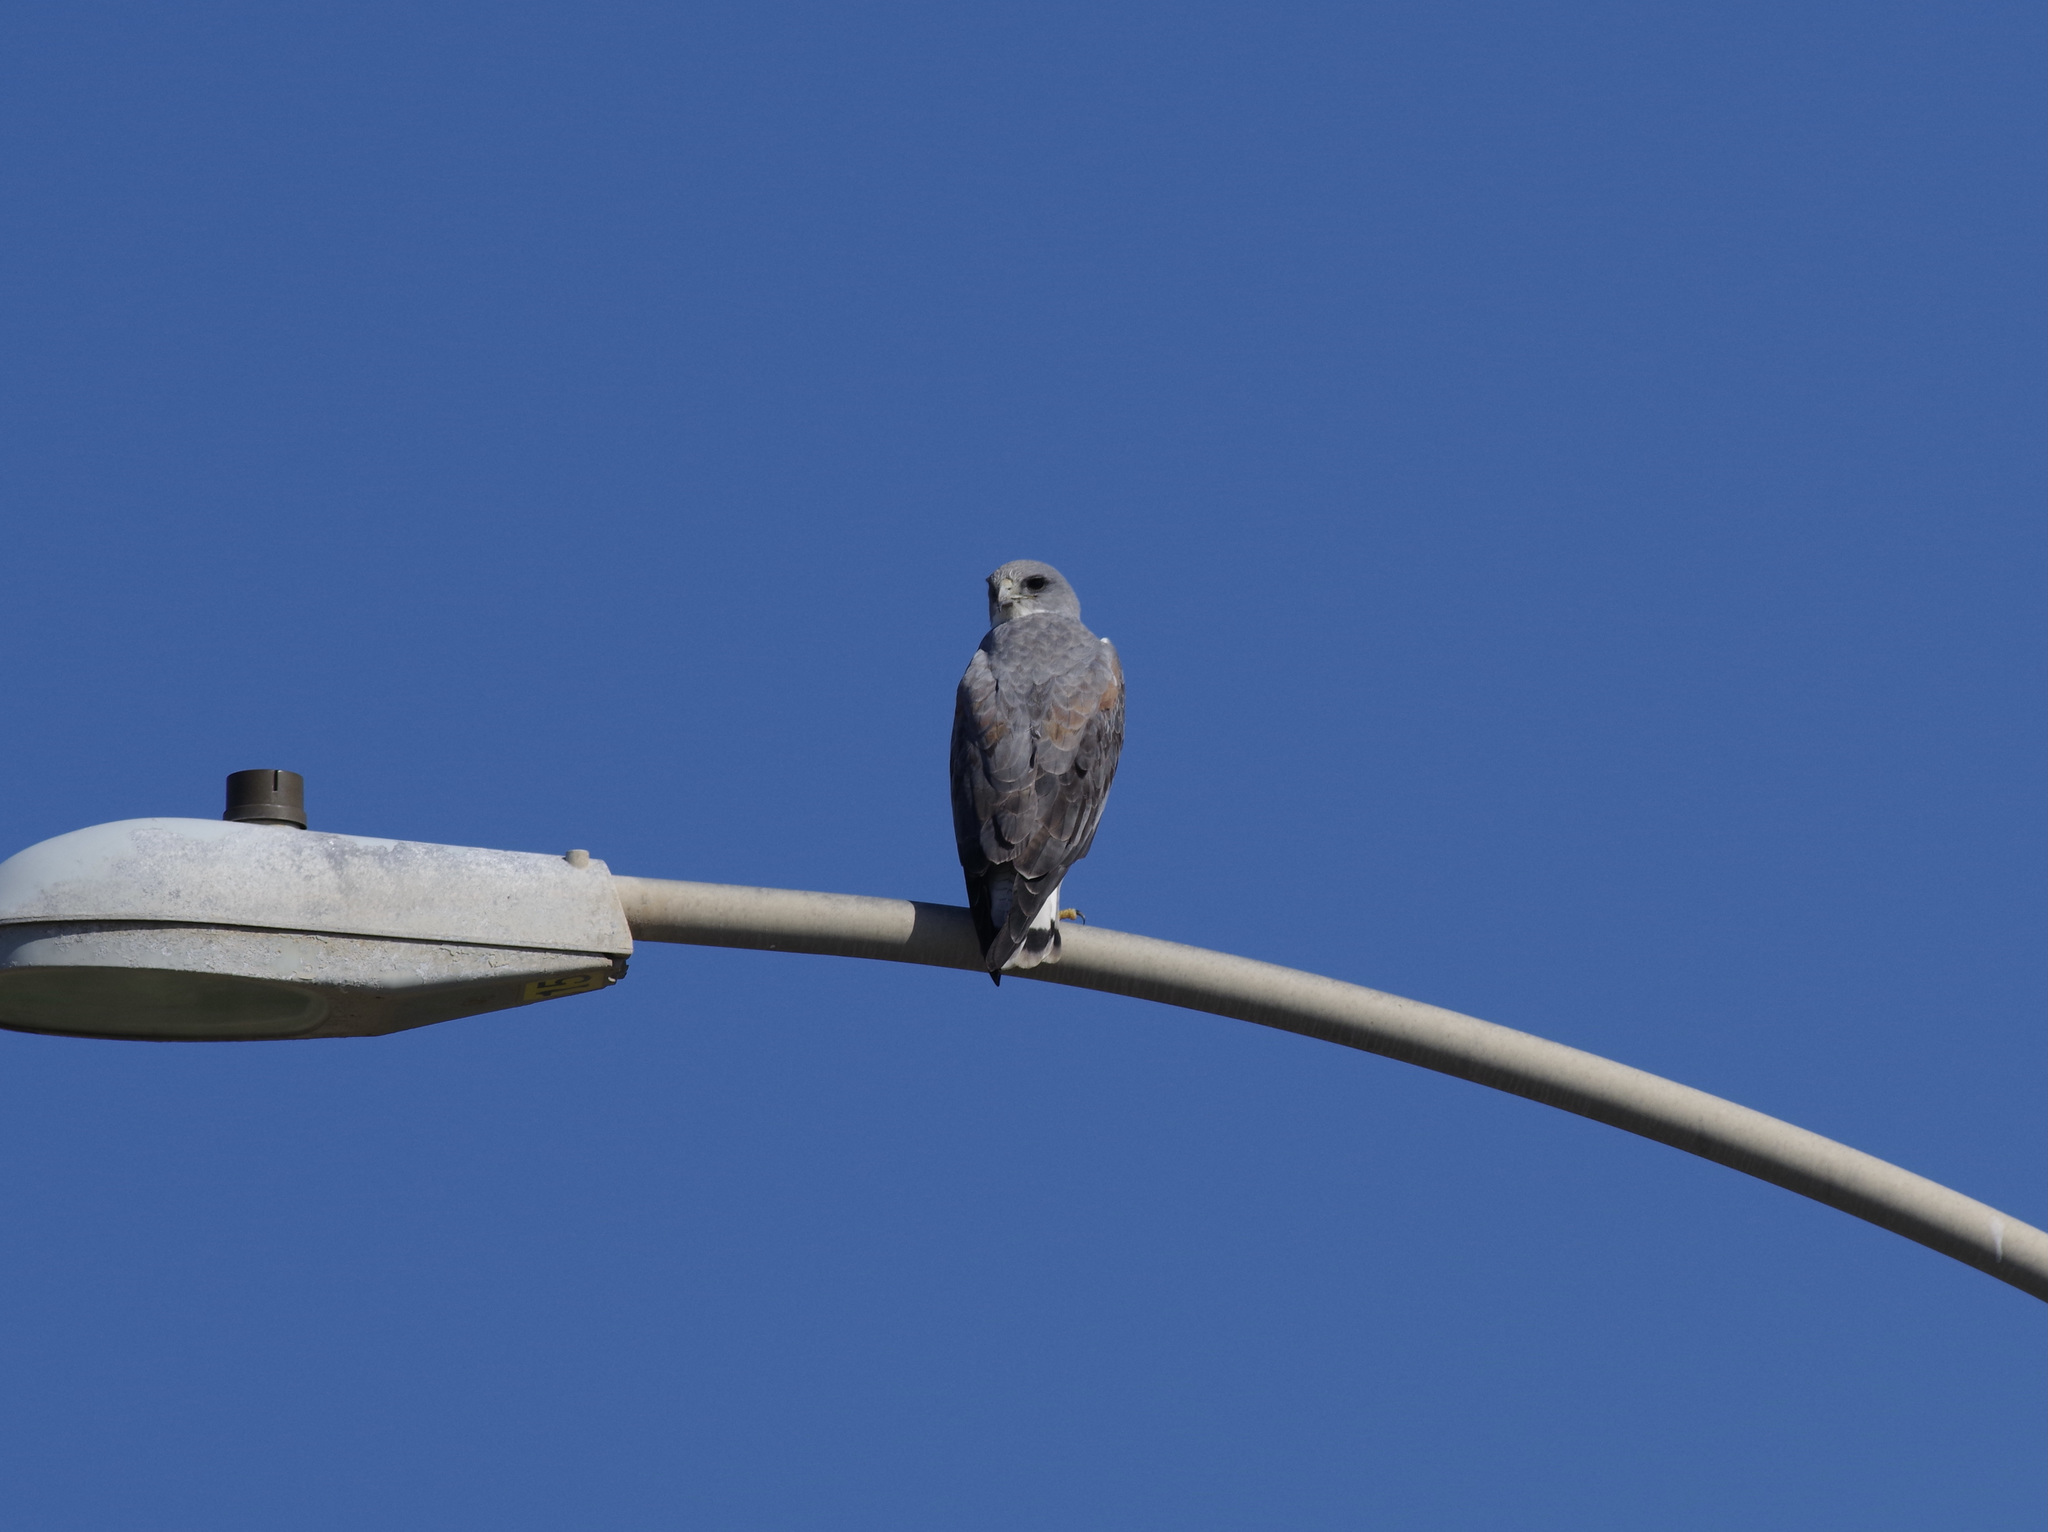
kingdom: Animalia
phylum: Chordata
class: Aves
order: Accipitriformes
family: Accipitridae
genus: Buteo
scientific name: Buteo albicaudatus
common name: White-tailed hawk
